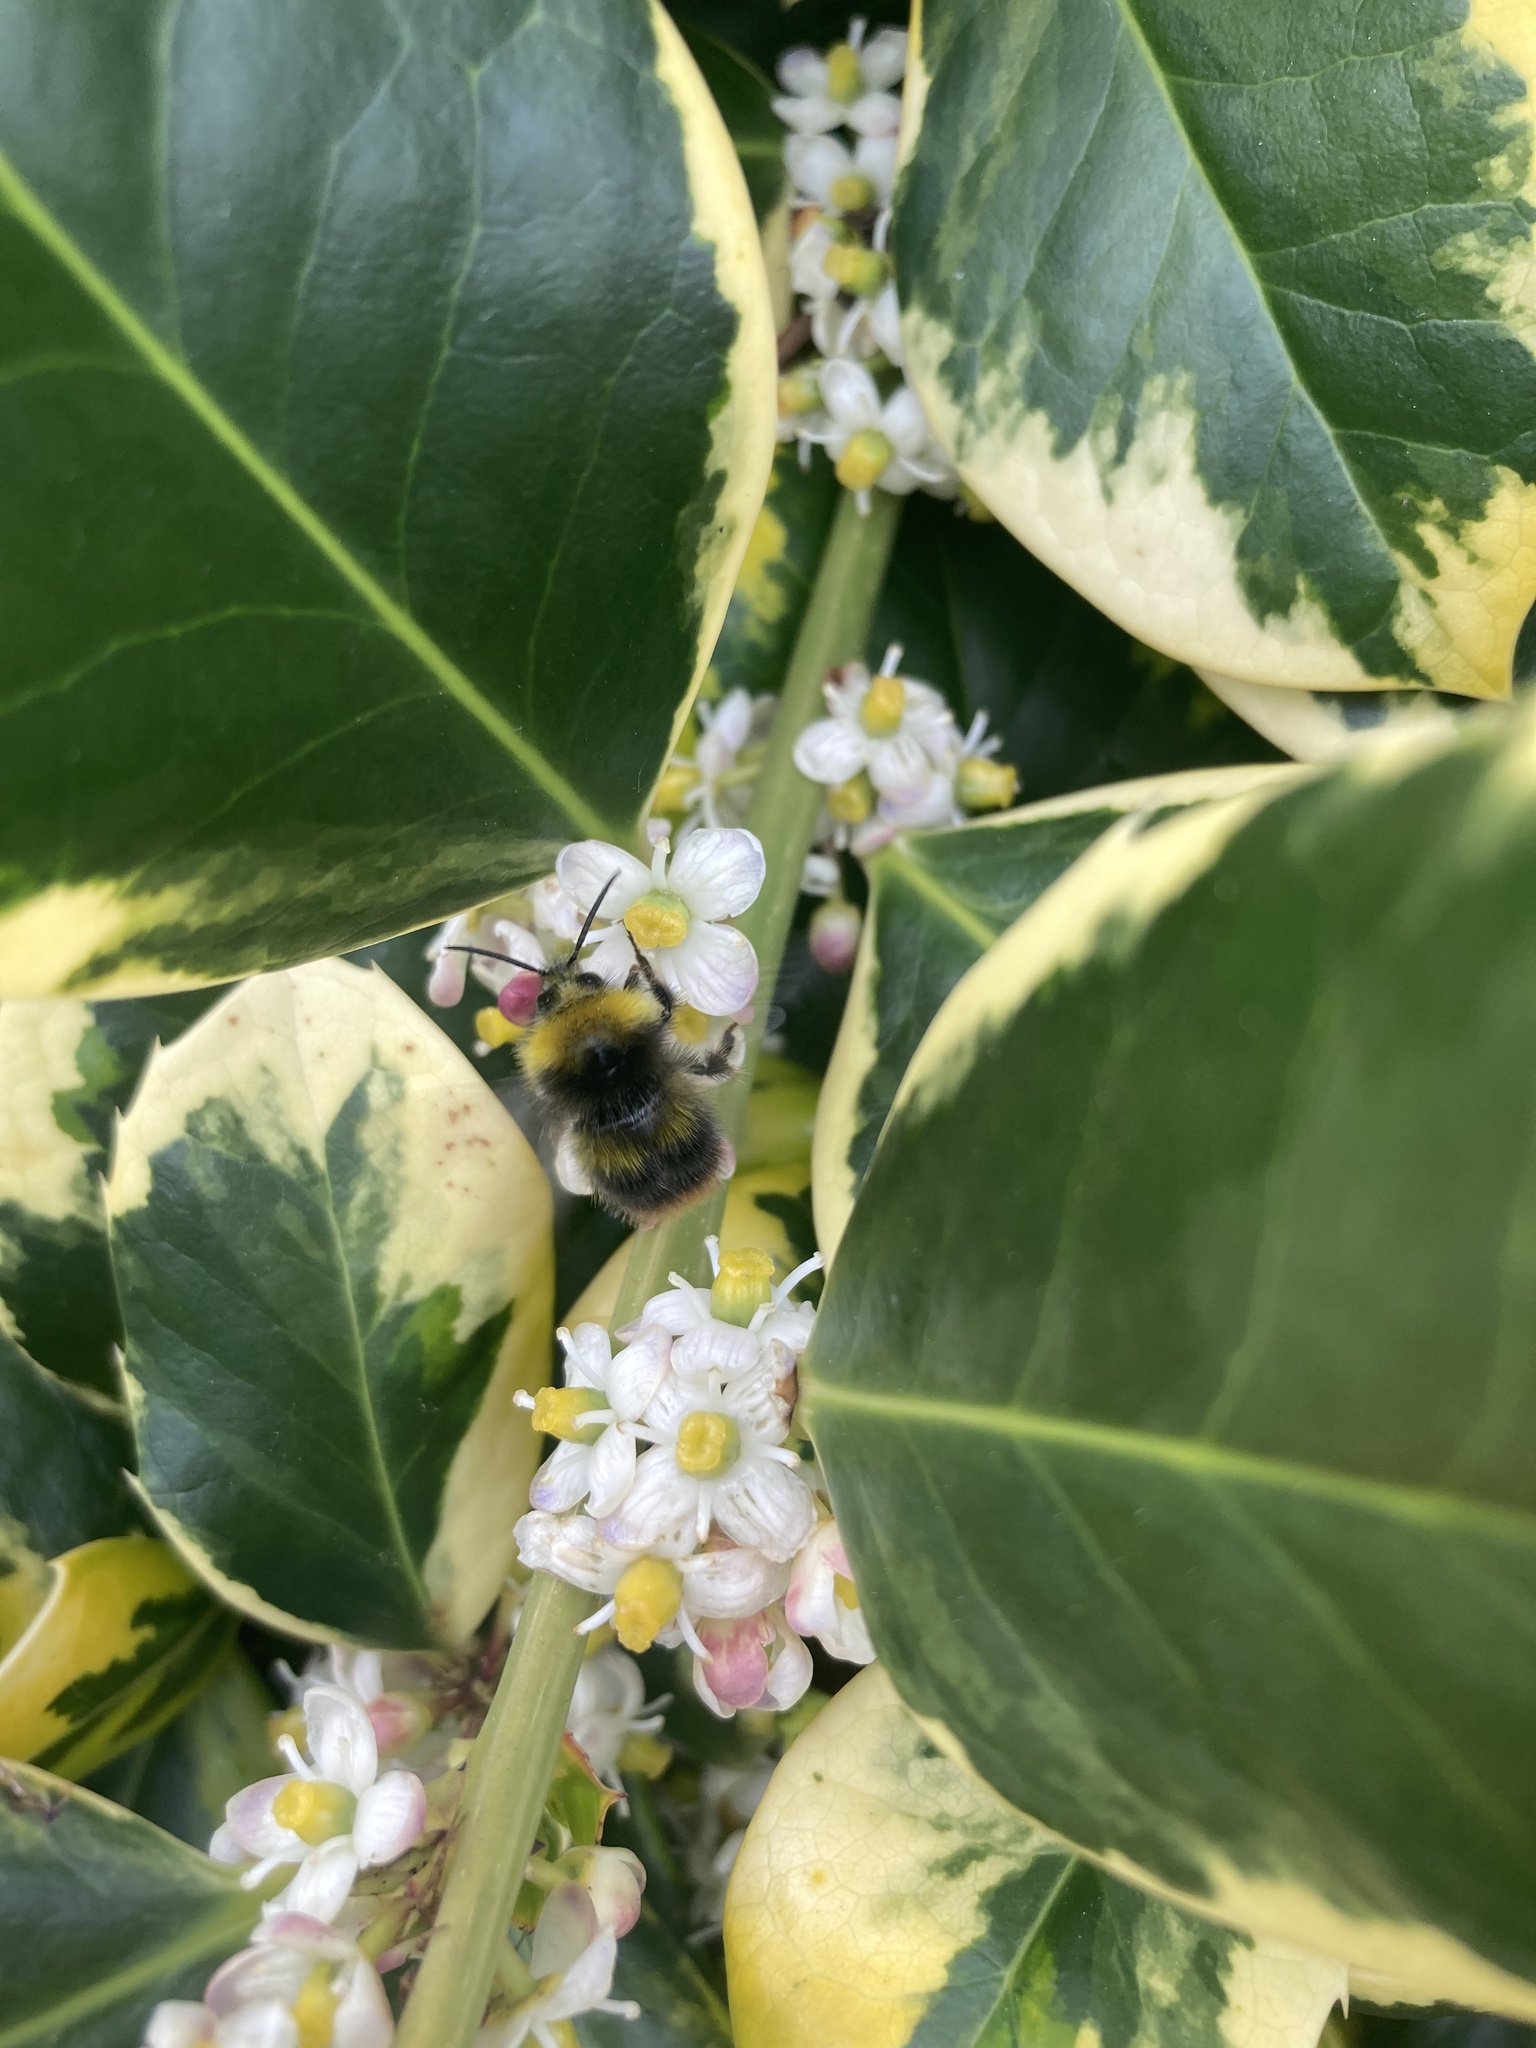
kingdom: Animalia
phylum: Arthropoda
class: Insecta
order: Hymenoptera
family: Apidae
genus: Bombus
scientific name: Bombus pratorum
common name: Early humble-bee
